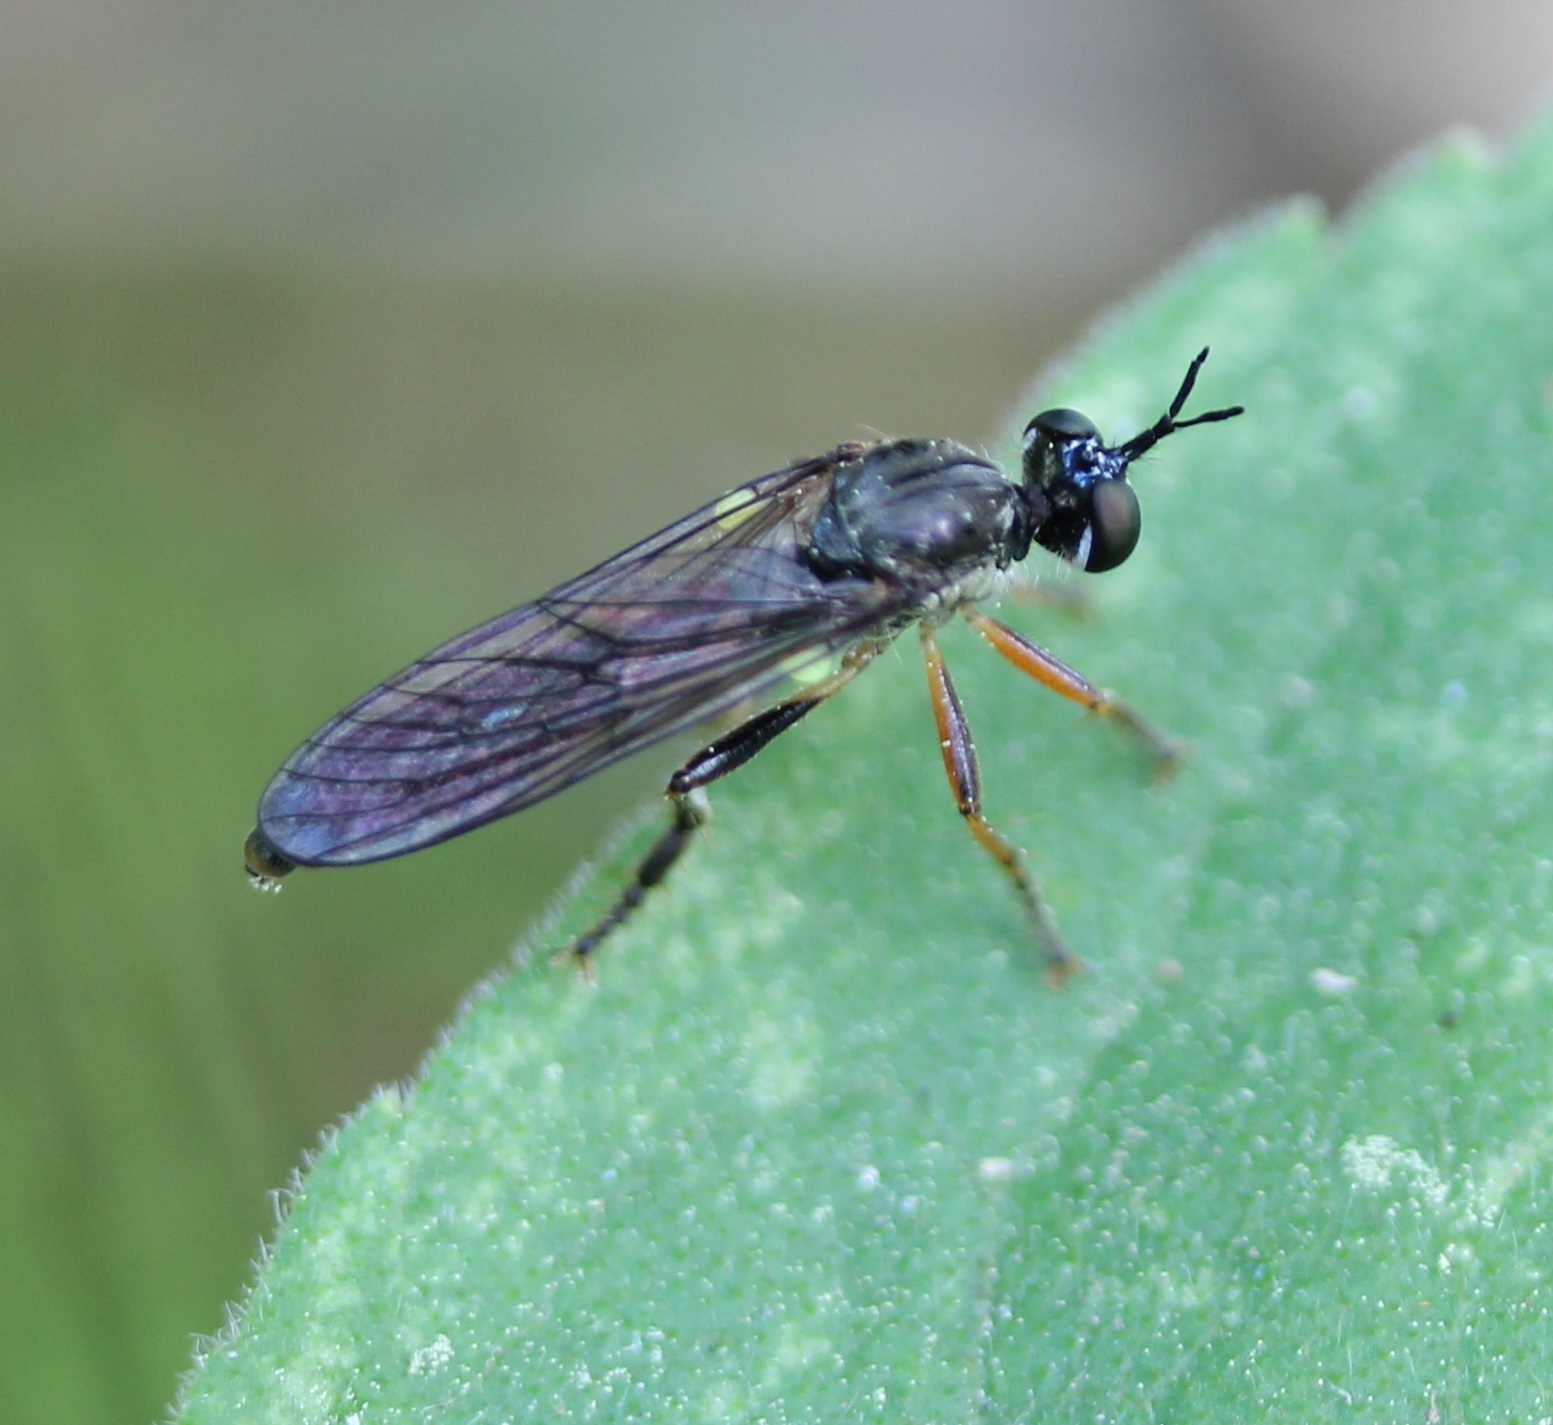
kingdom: Animalia
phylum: Arthropoda
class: Insecta
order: Diptera
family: Asilidae
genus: Dioctria
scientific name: Dioctria hyalipennis
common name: Stripe-legged robberfly
